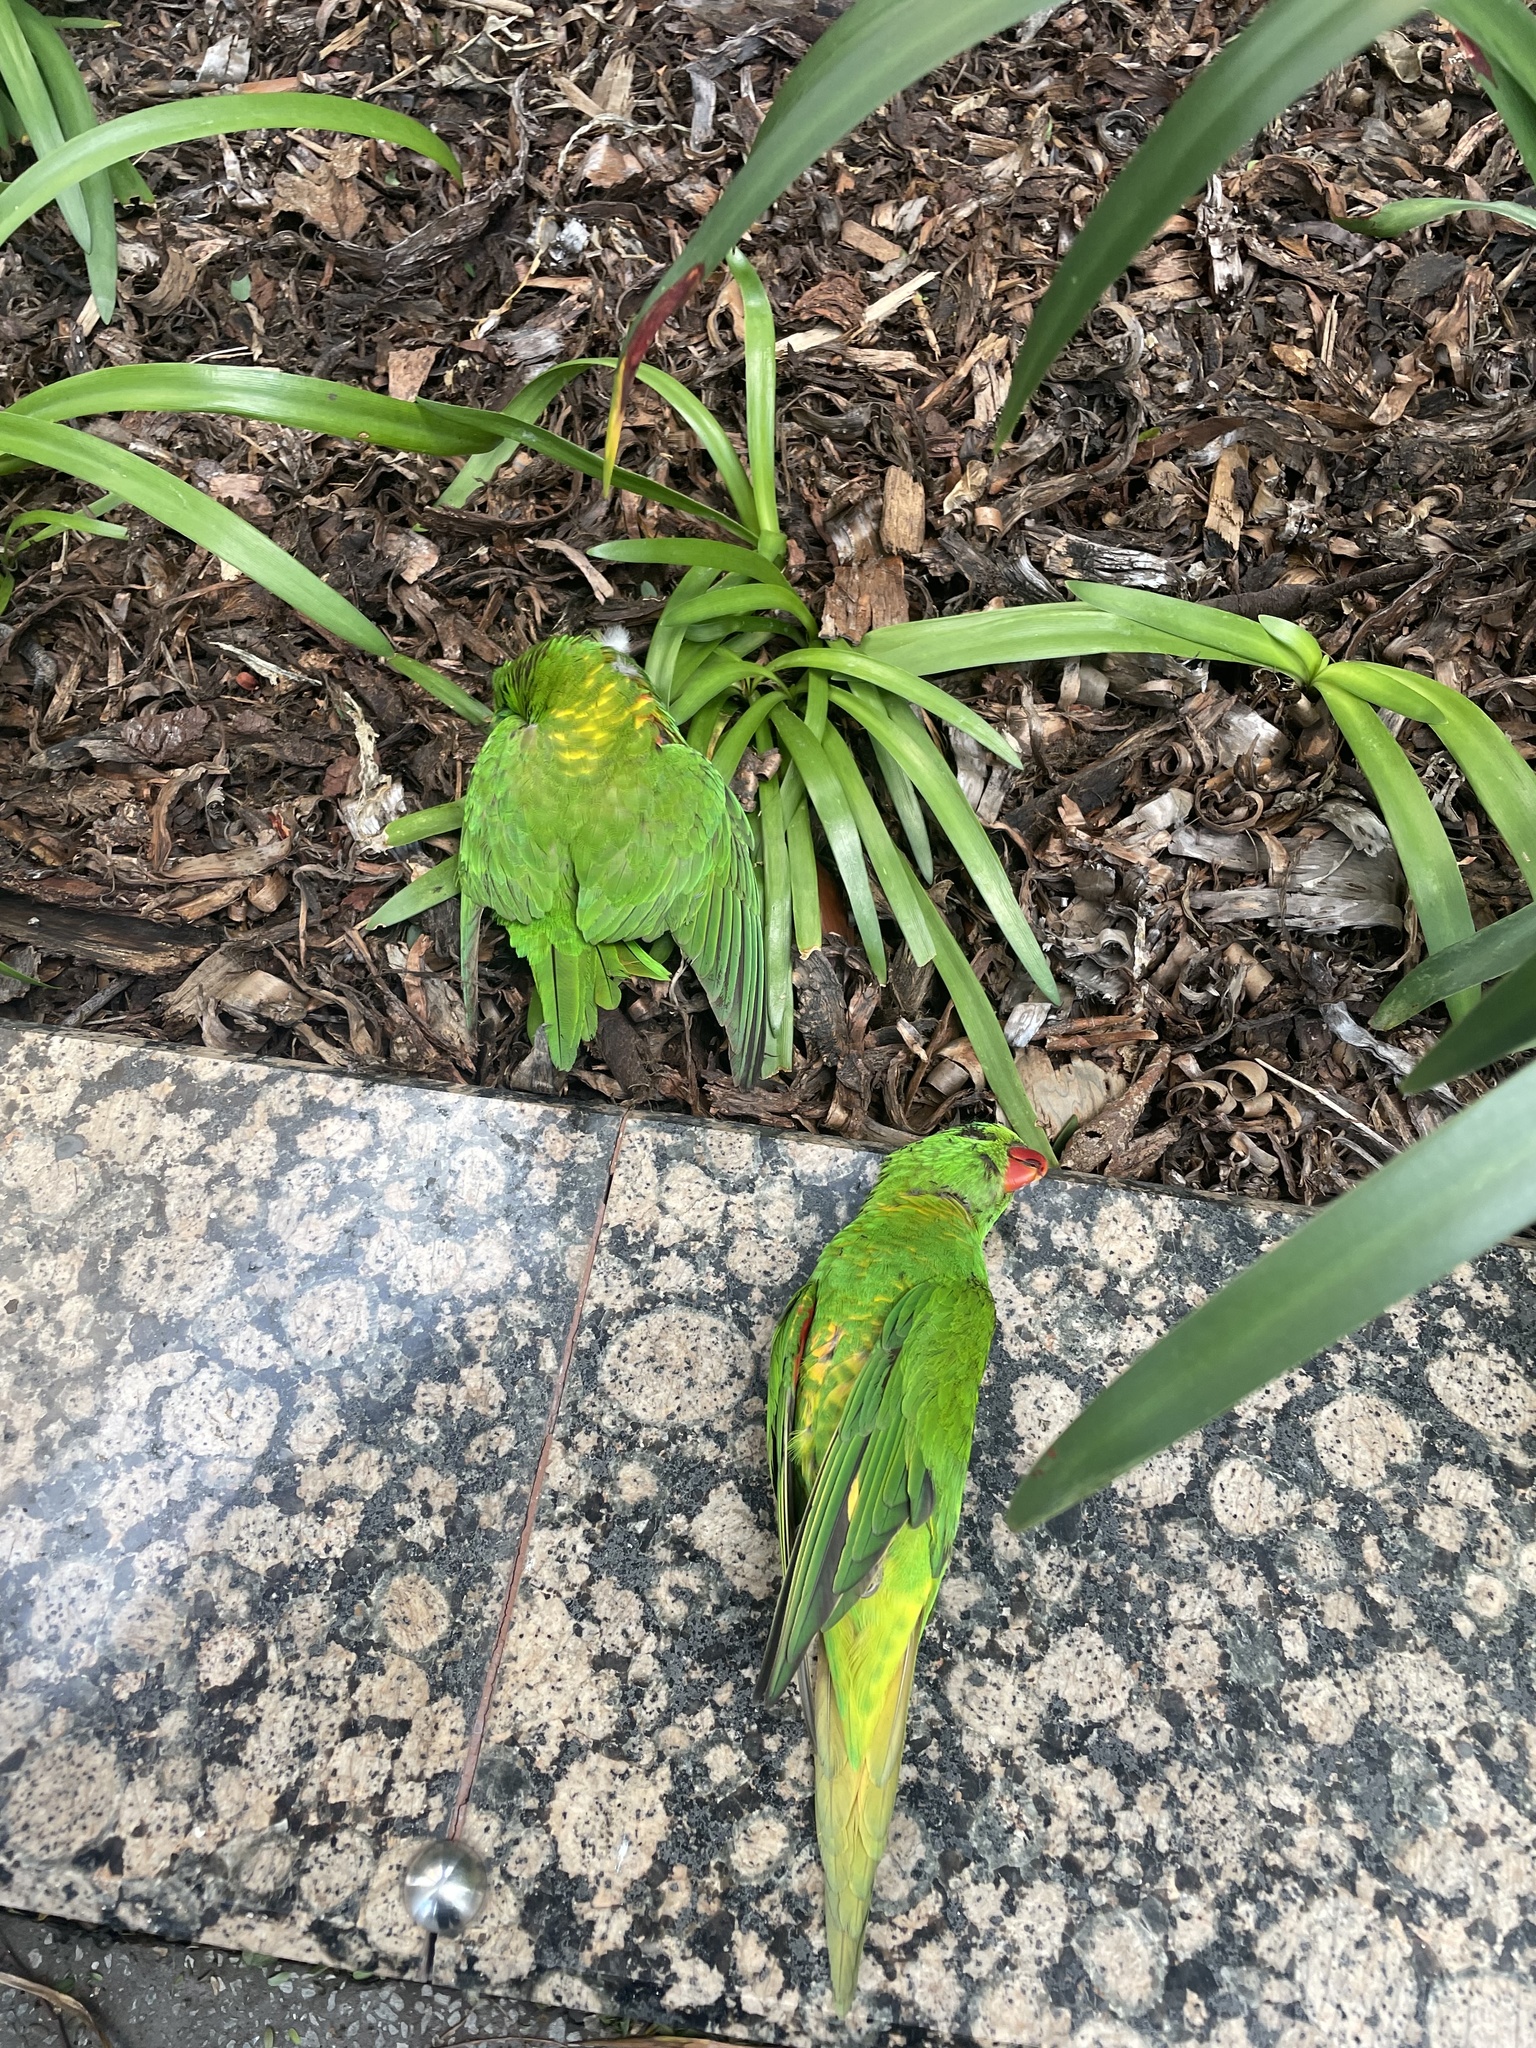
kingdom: Animalia
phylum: Chordata
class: Aves
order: Psittaciformes
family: Psittacidae
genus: Trichoglossus
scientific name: Trichoglossus chlorolepidotus
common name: Scaly-breasted lorikeet
